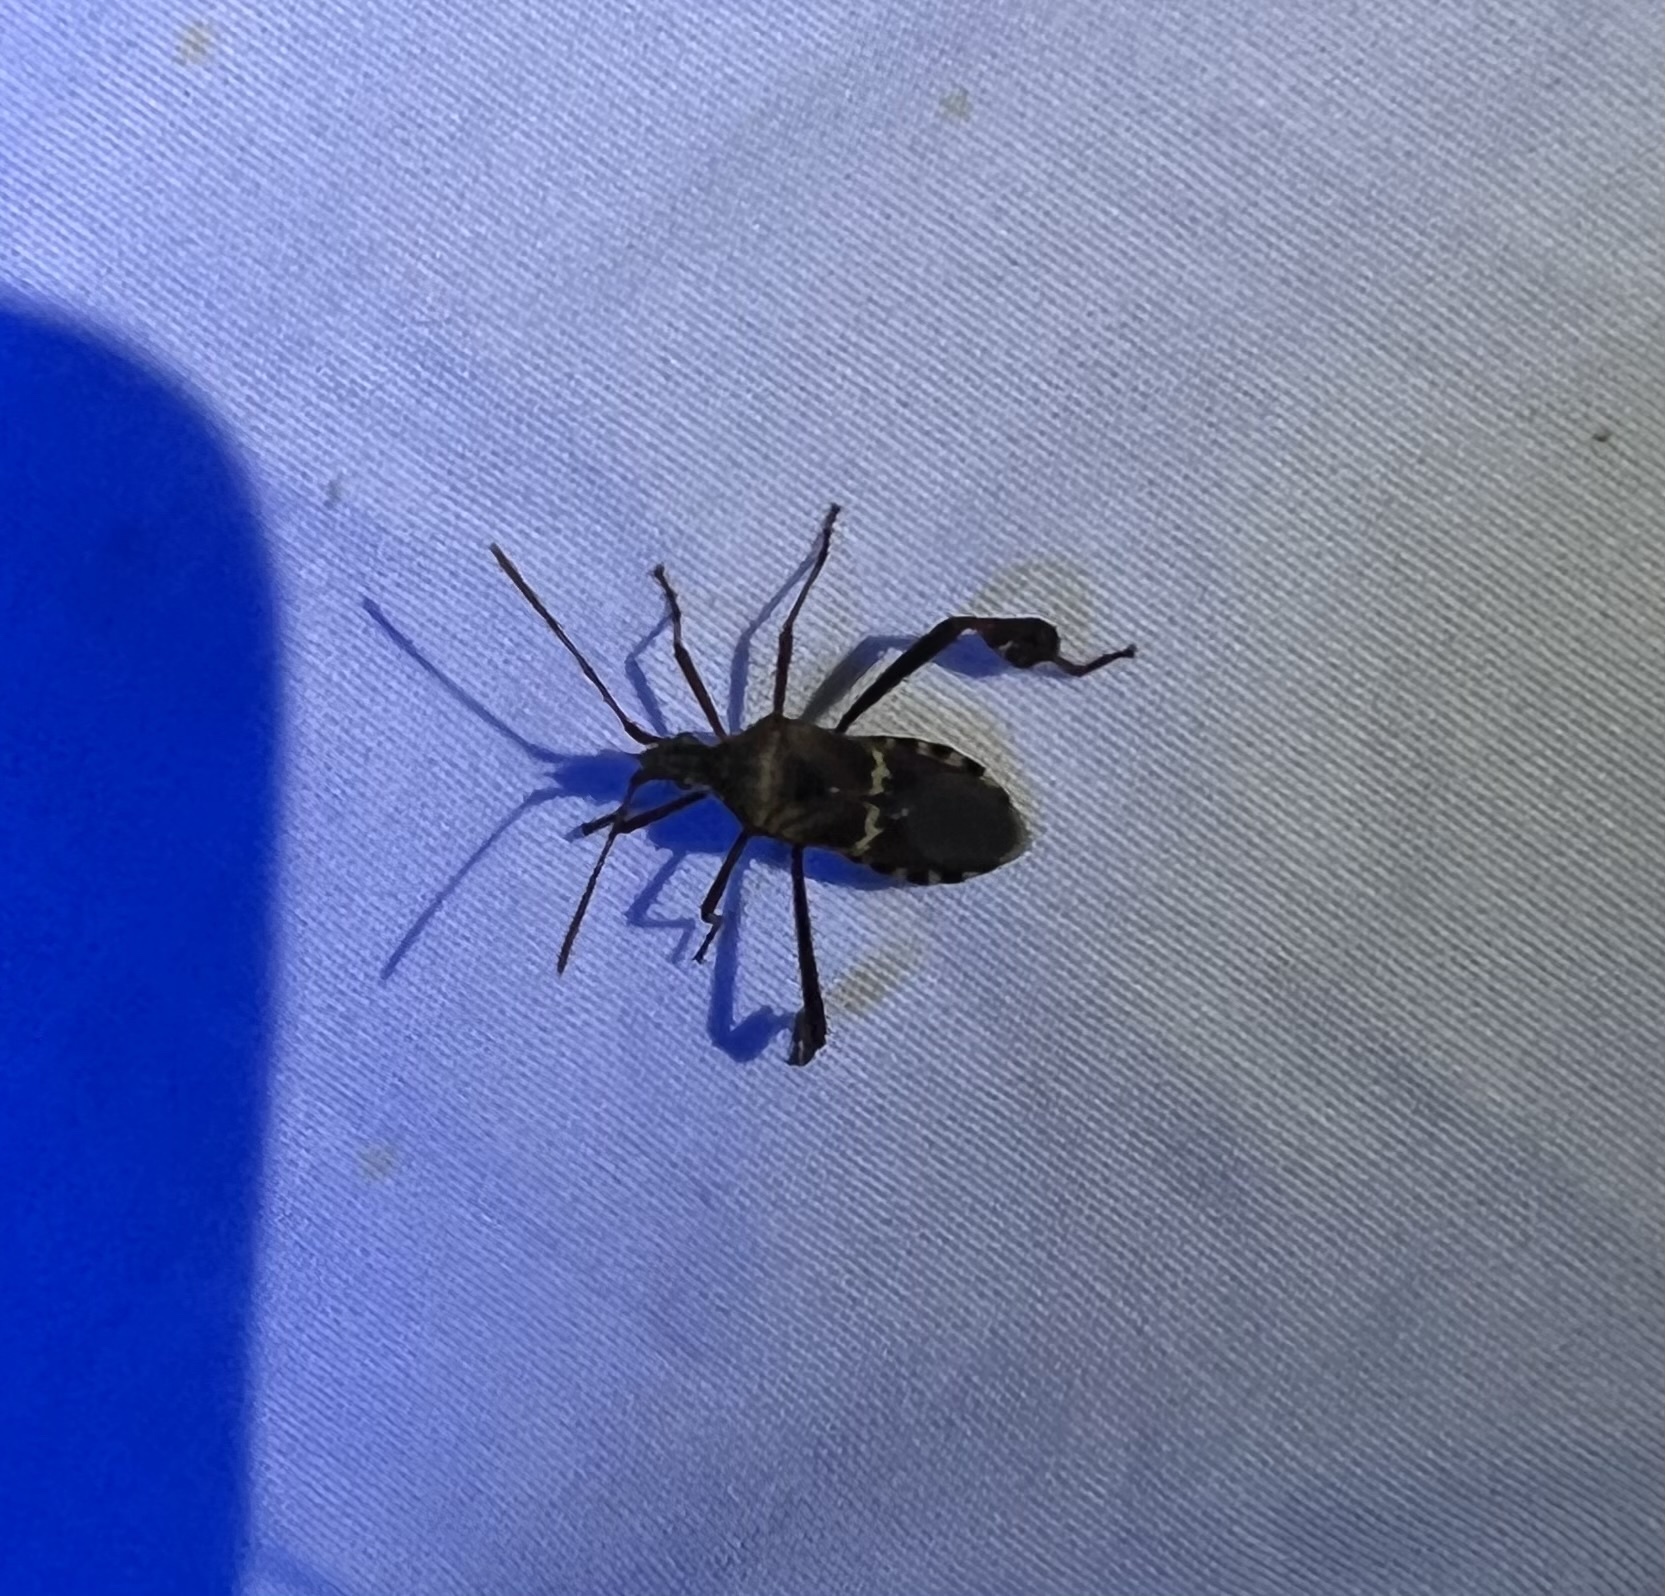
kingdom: Animalia
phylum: Arthropoda
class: Insecta
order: Hemiptera
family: Coreidae
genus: Leptoglossus
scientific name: Leptoglossus clypealis
